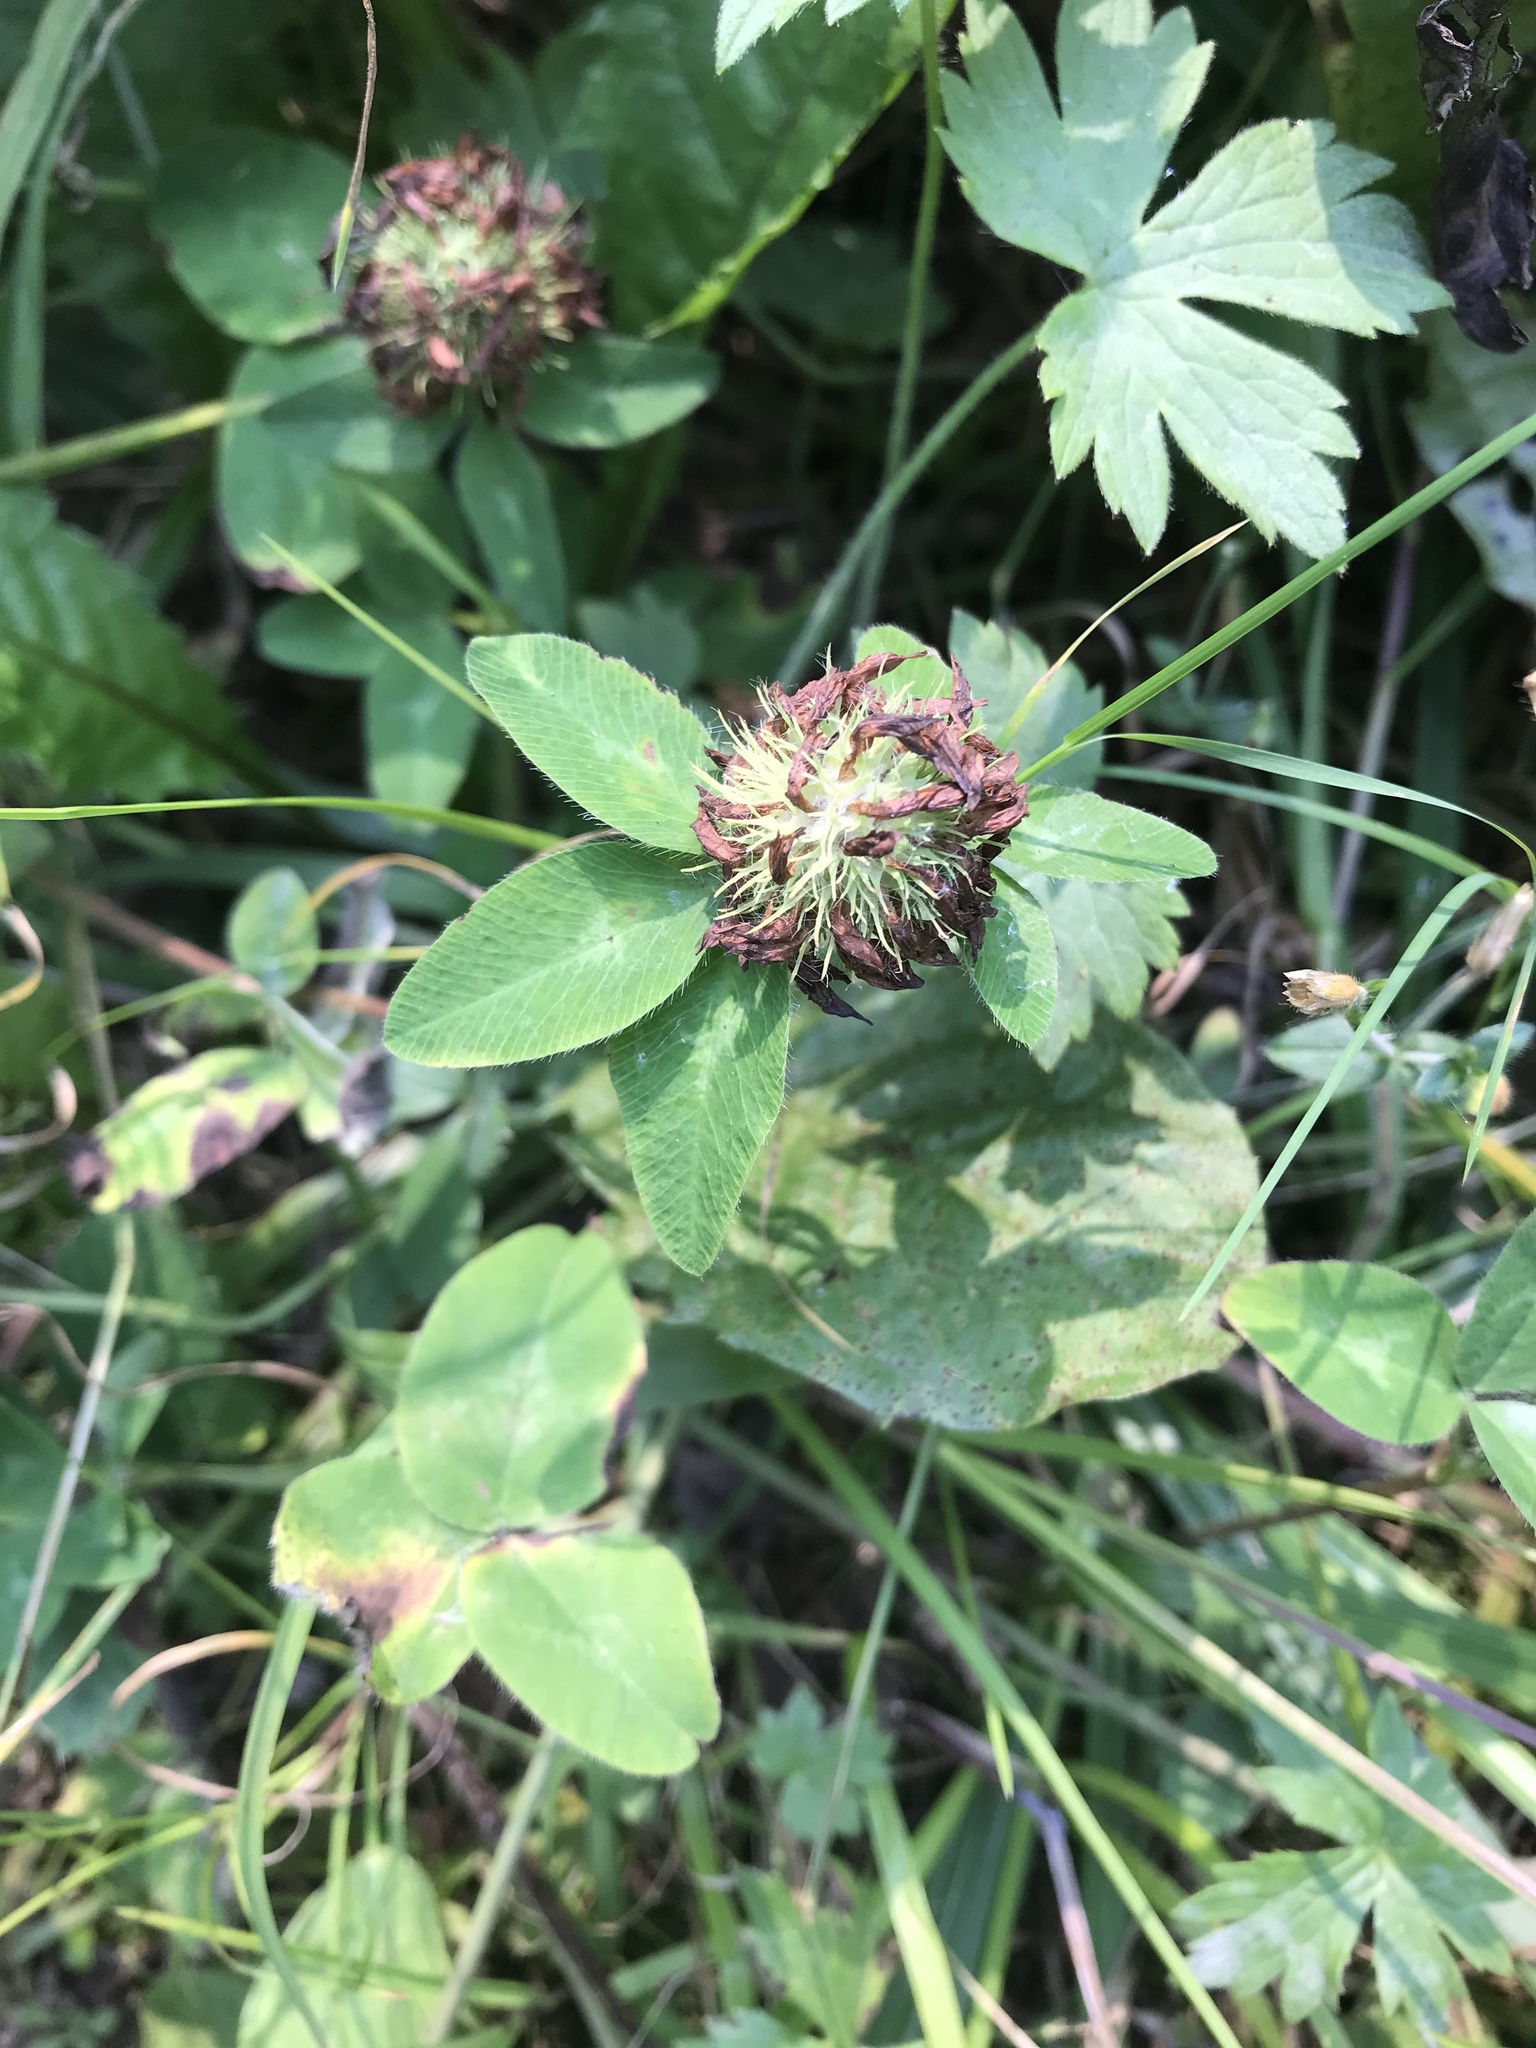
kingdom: Plantae
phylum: Tracheophyta
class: Magnoliopsida
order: Fabales
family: Fabaceae
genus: Trifolium
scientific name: Trifolium pratense
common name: Red clover
